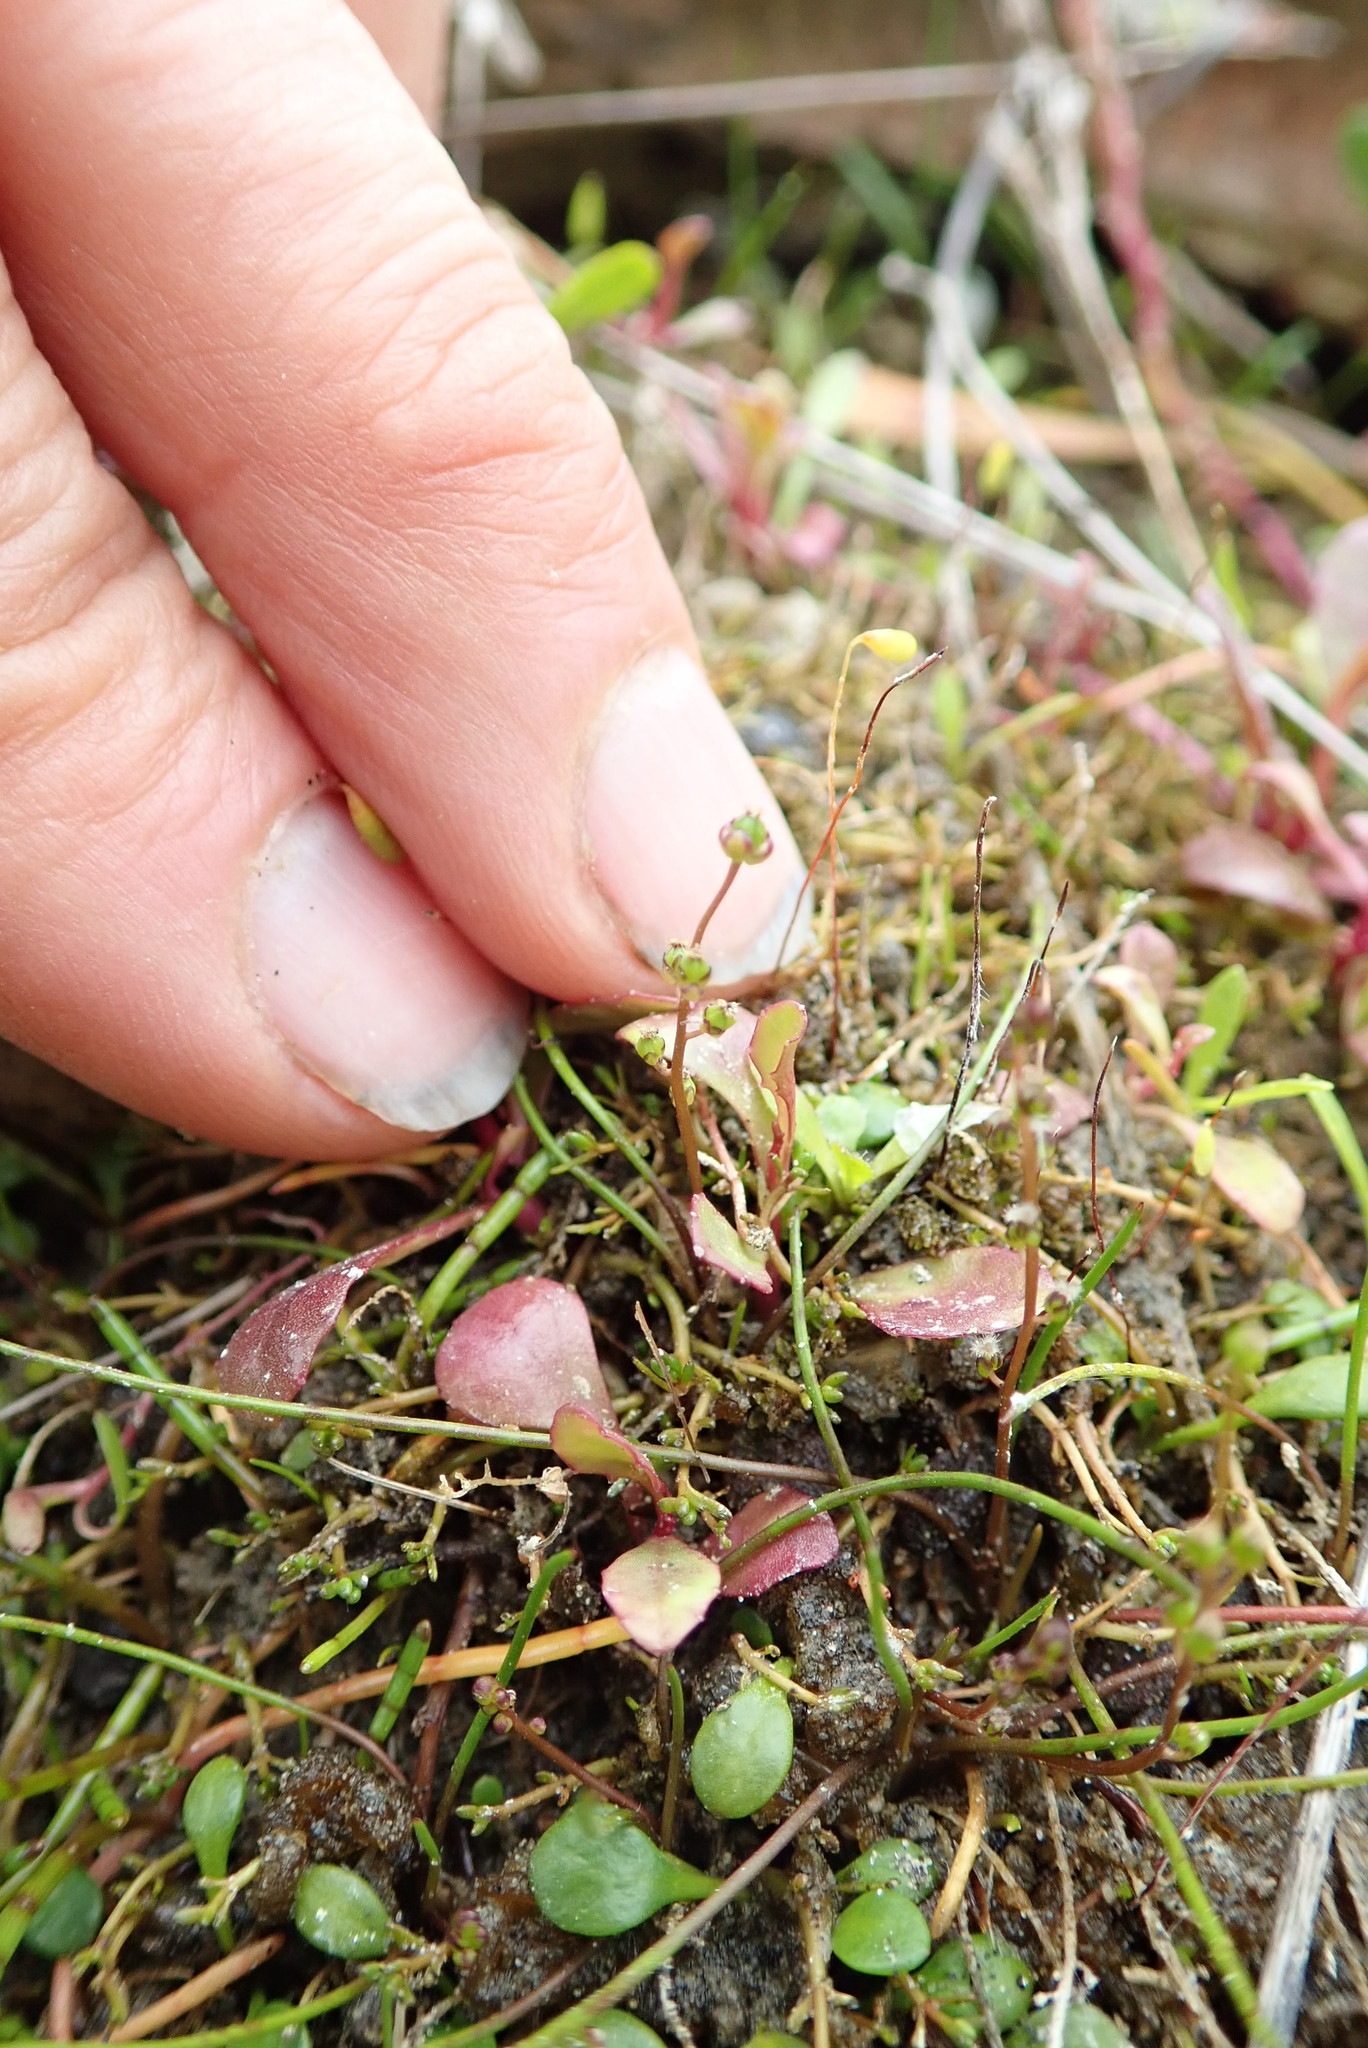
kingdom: Plantae
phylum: Tracheophyta
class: Liliopsida
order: Alismatales
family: Juncaginaceae
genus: Triglochin
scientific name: Triglochin striata
